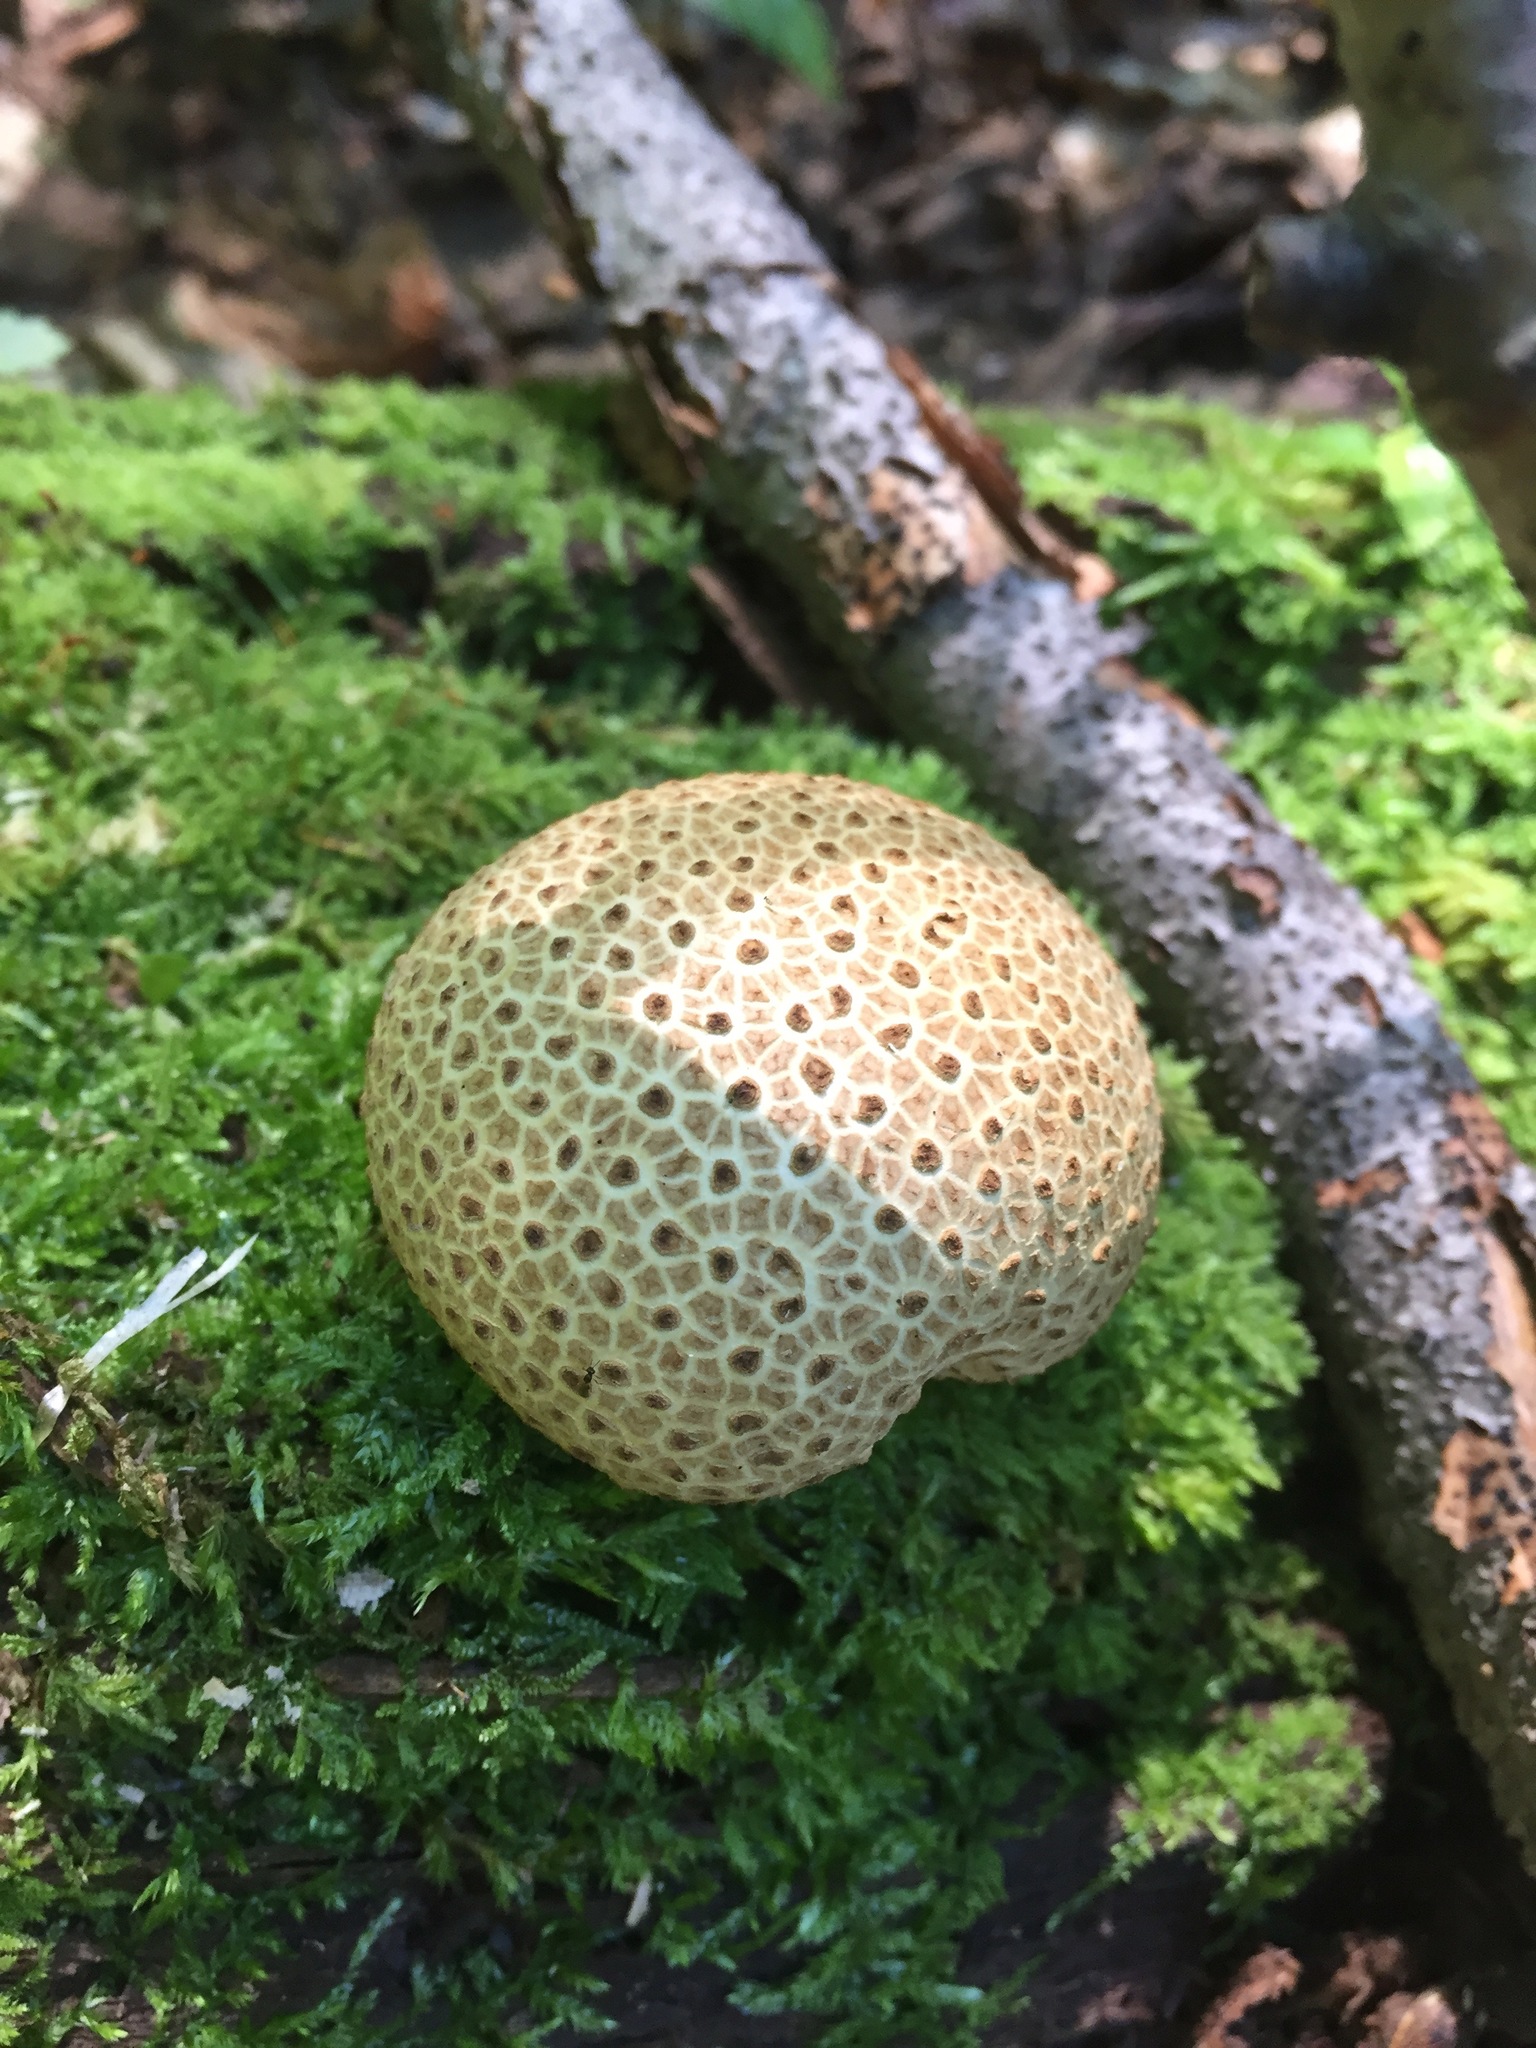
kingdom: Fungi
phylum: Basidiomycota
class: Agaricomycetes
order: Boletales
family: Sclerodermataceae
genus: Scleroderma
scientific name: Scleroderma citrinum
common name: Common earthball
